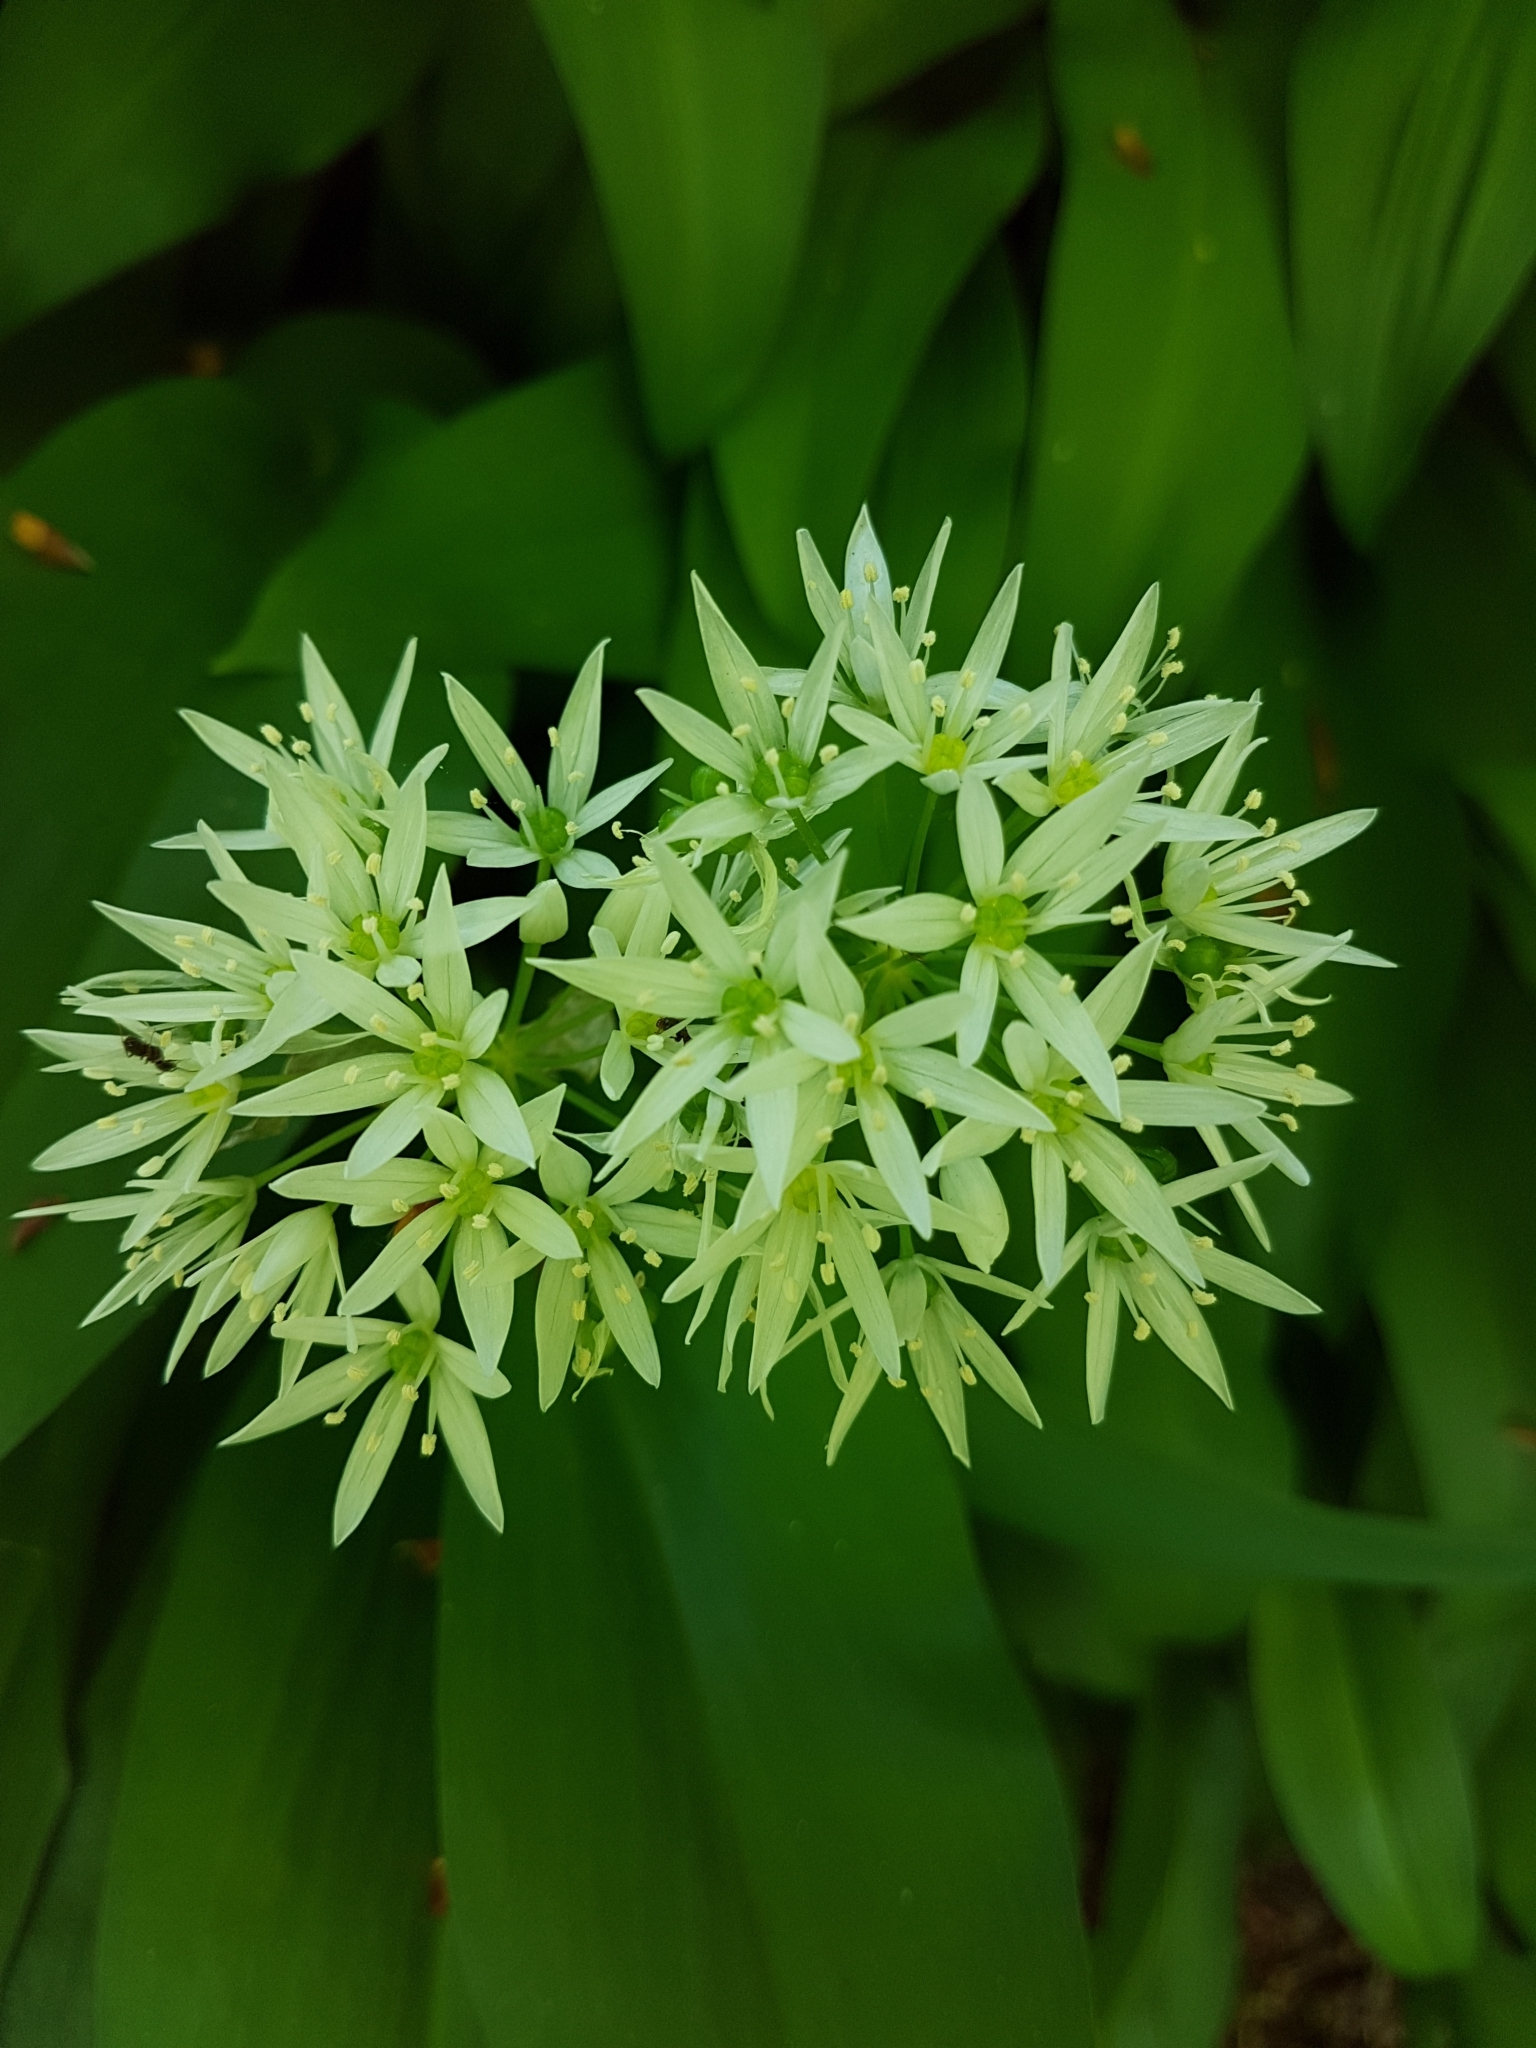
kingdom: Plantae
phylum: Tracheophyta
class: Liliopsida
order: Asparagales
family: Amaryllidaceae
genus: Allium
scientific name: Allium ursinum
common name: Ramsons
